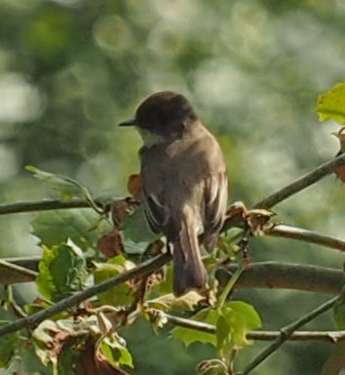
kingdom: Animalia
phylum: Chordata
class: Aves
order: Passeriformes
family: Tyrannidae
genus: Sayornis
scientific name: Sayornis phoebe
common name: Eastern phoebe
